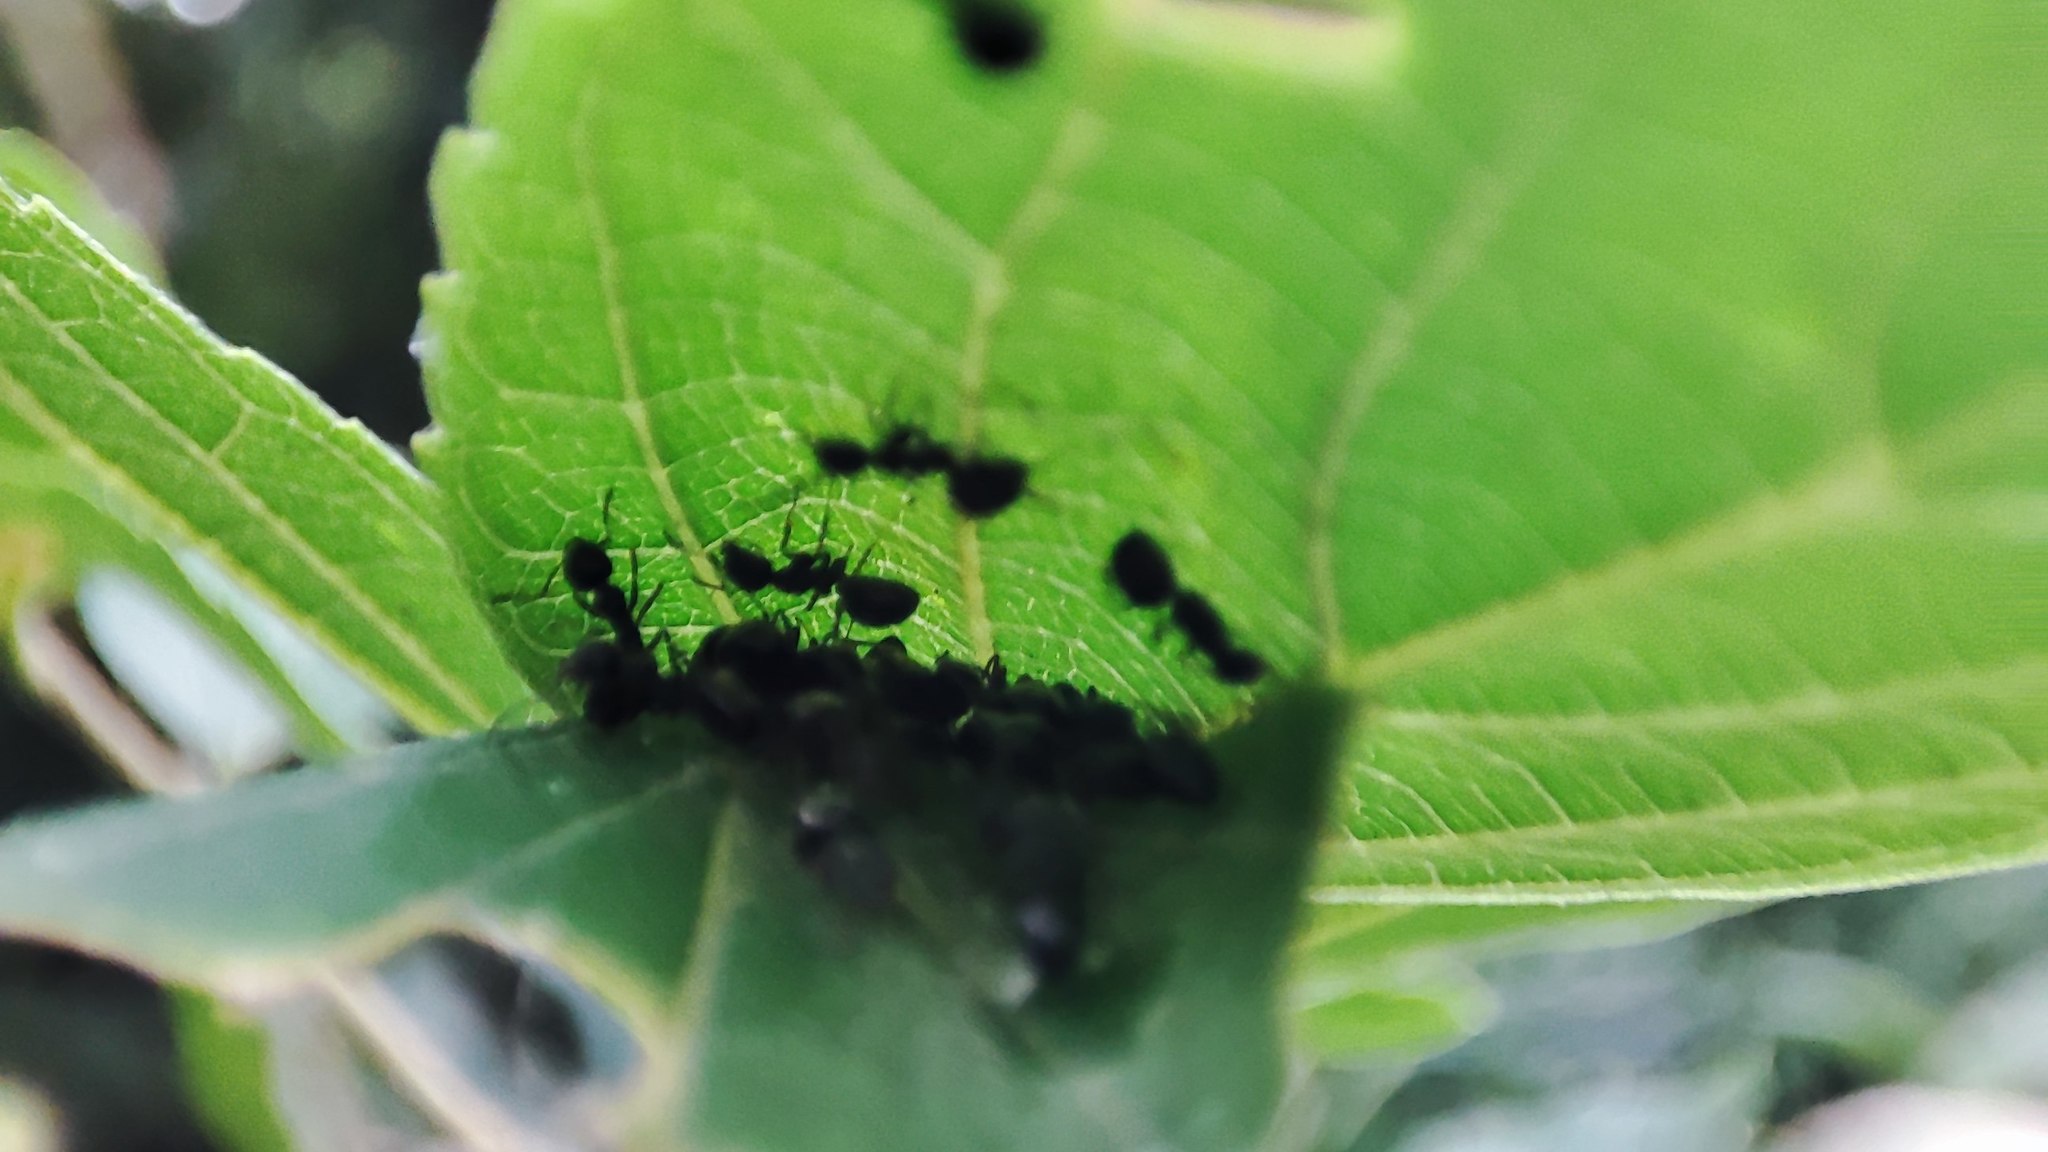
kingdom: Animalia
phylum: Arthropoda
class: Insecta
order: Hymenoptera
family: Formicidae
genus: Dolichoderus
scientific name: Dolichoderus thoracicus
